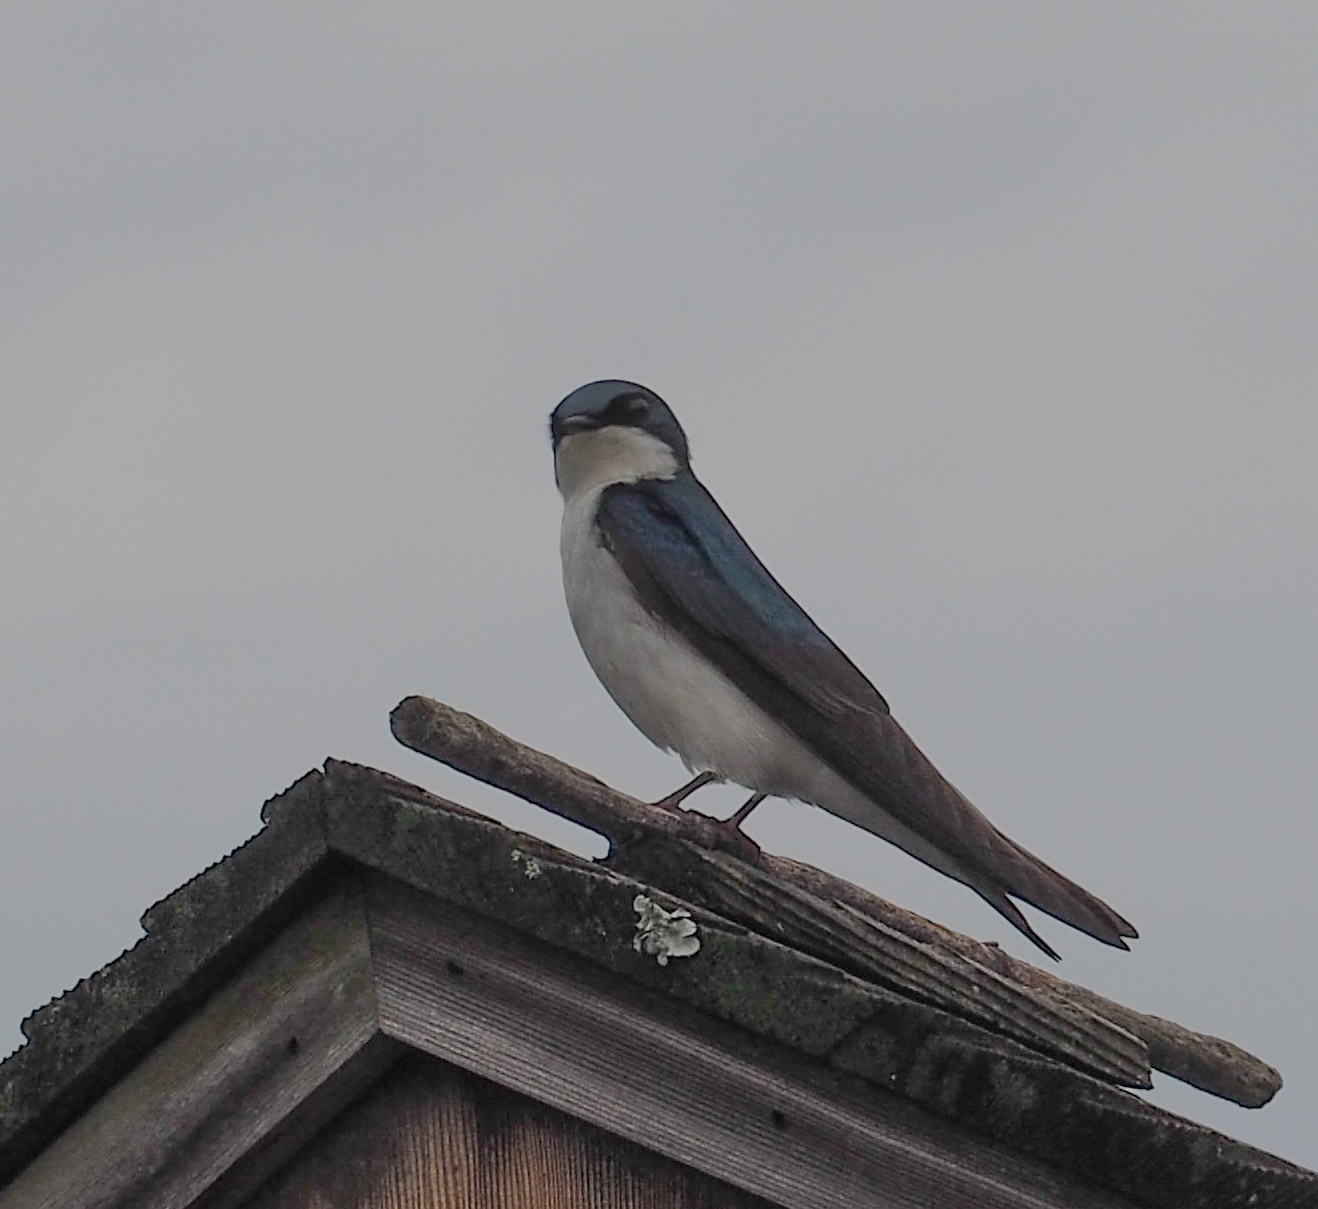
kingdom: Animalia
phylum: Chordata
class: Aves
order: Passeriformes
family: Hirundinidae
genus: Tachycineta
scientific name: Tachycineta bicolor
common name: Tree swallow
